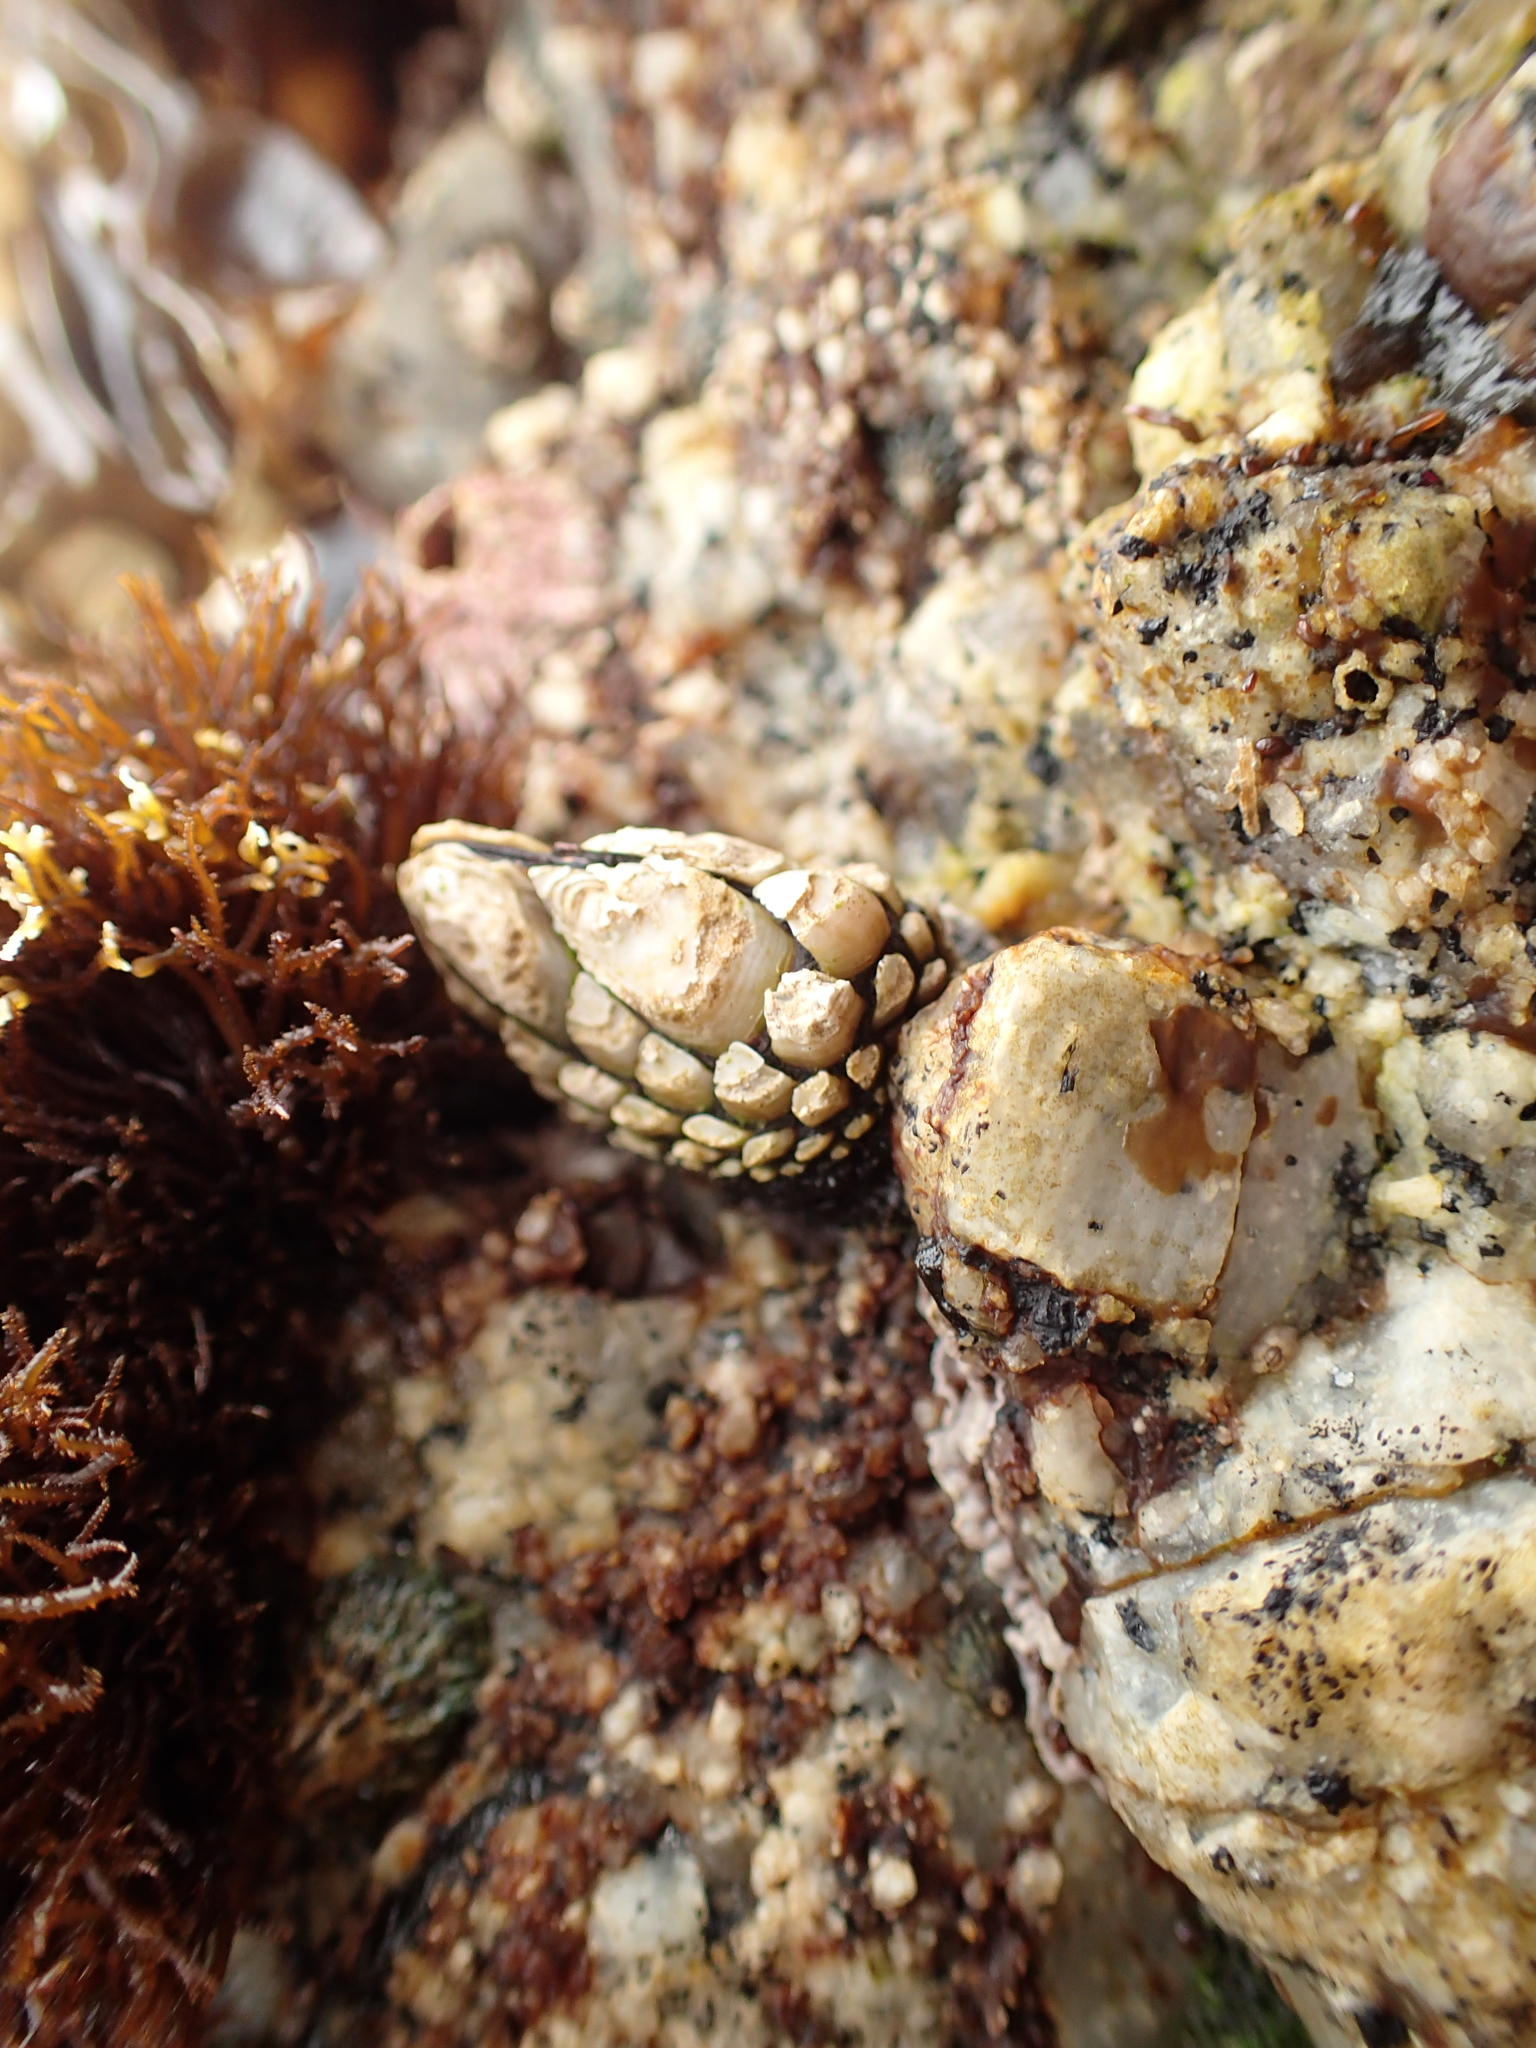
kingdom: Animalia
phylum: Arthropoda
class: Maxillopoda
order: Pedunculata
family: Pollicipedidae
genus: Pollicipes
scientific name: Pollicipes polymerus
